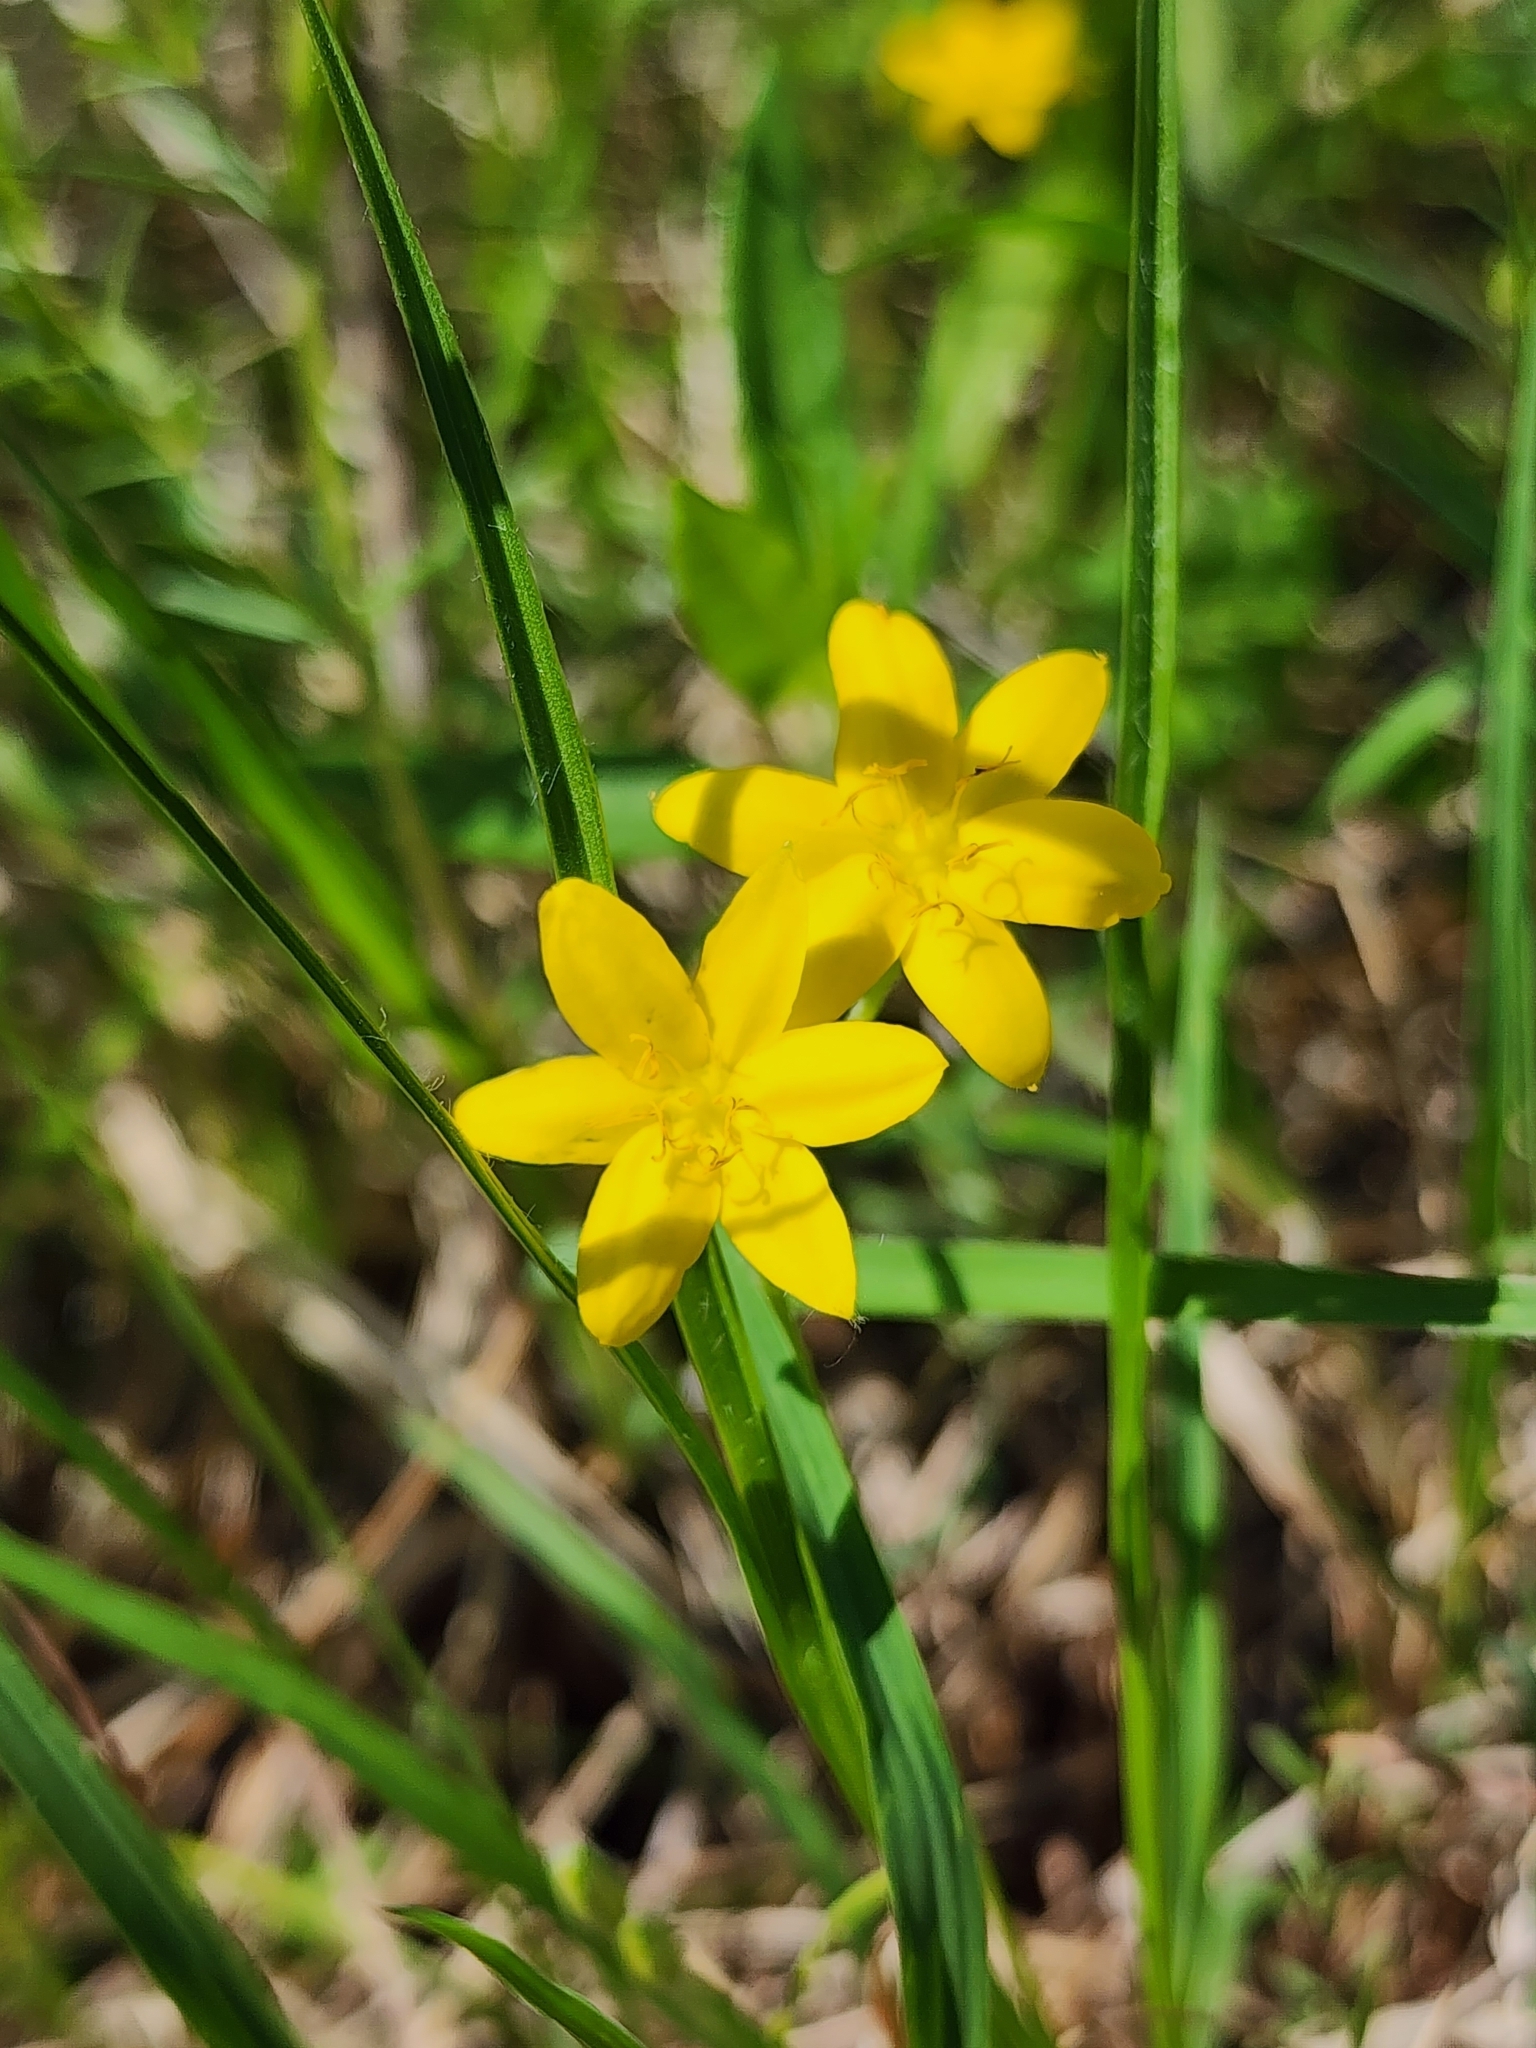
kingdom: Plantae
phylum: Tracheophyta
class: Liliopsida
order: Asparagales
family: Hypoxidaceae
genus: Hypoxis
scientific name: Hypoxis hirsuta
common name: Common goldstar
